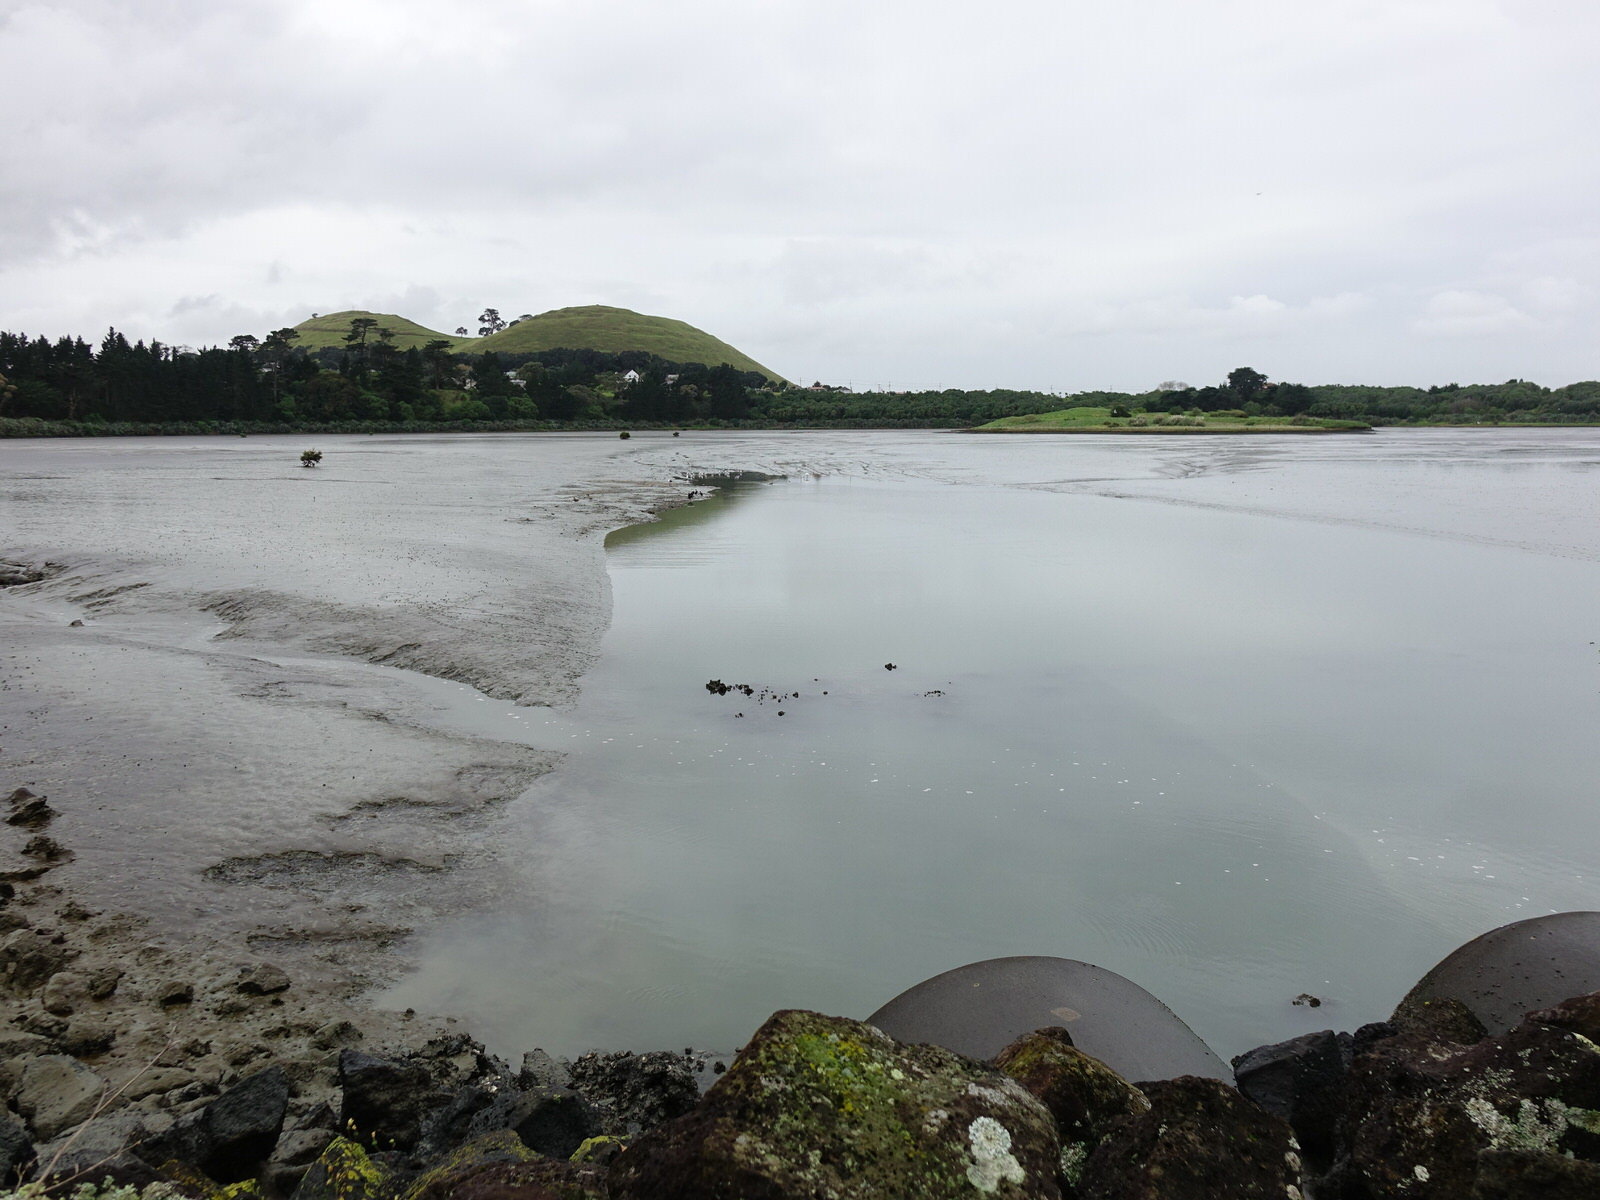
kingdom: Animalia
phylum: Chordata
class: Aves
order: Suliformes
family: Phalacrocoracidae
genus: Phalacrocorax
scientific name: Phalacrocorax sulcirostris
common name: Little black cormorant
